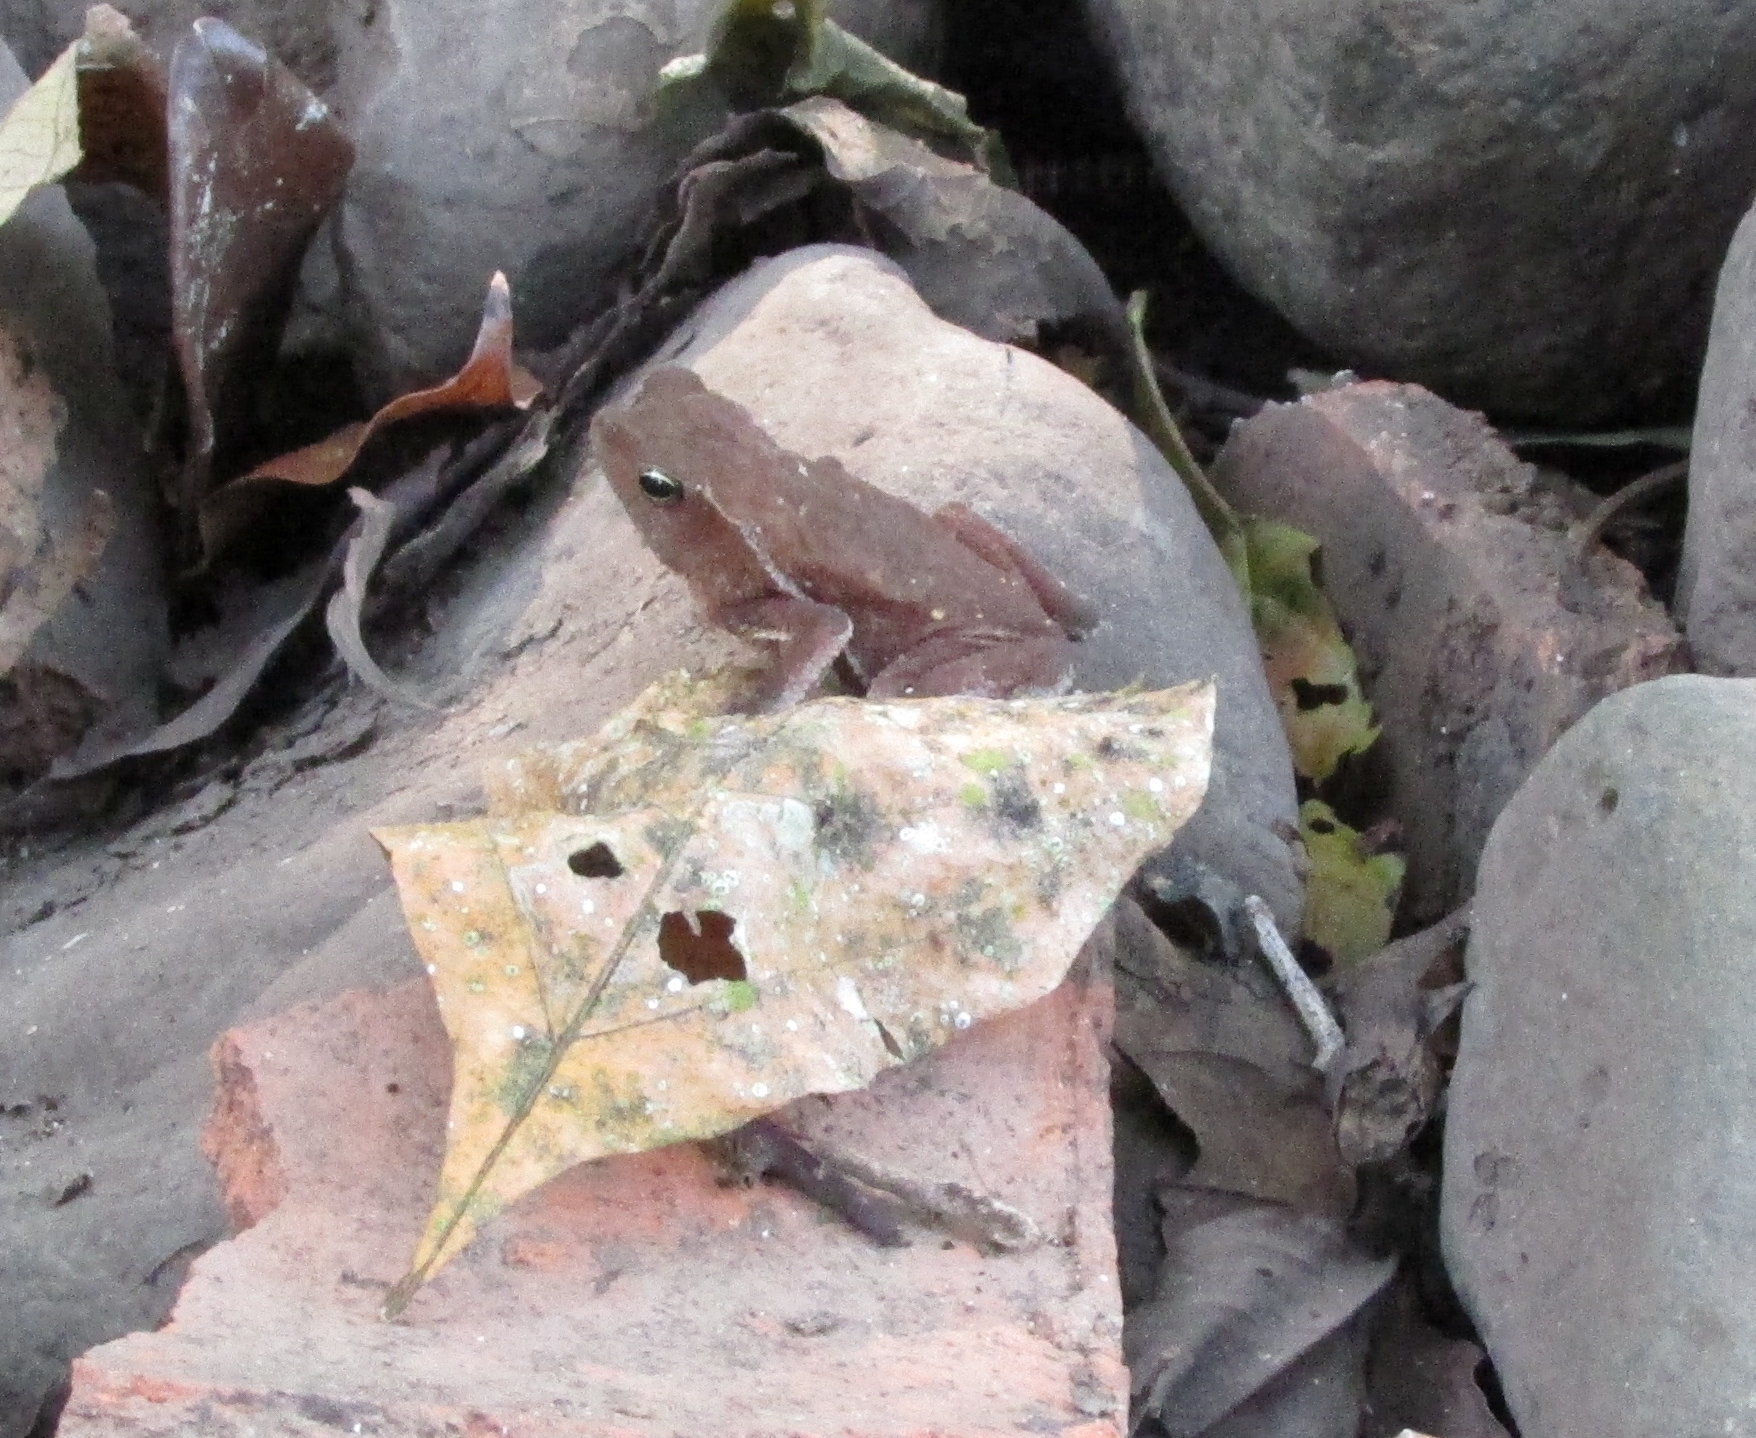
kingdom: Animalia
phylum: Chordata
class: Amphibia
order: Anura
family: Bufonidae
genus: Rhinella
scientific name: Rhinella alata
